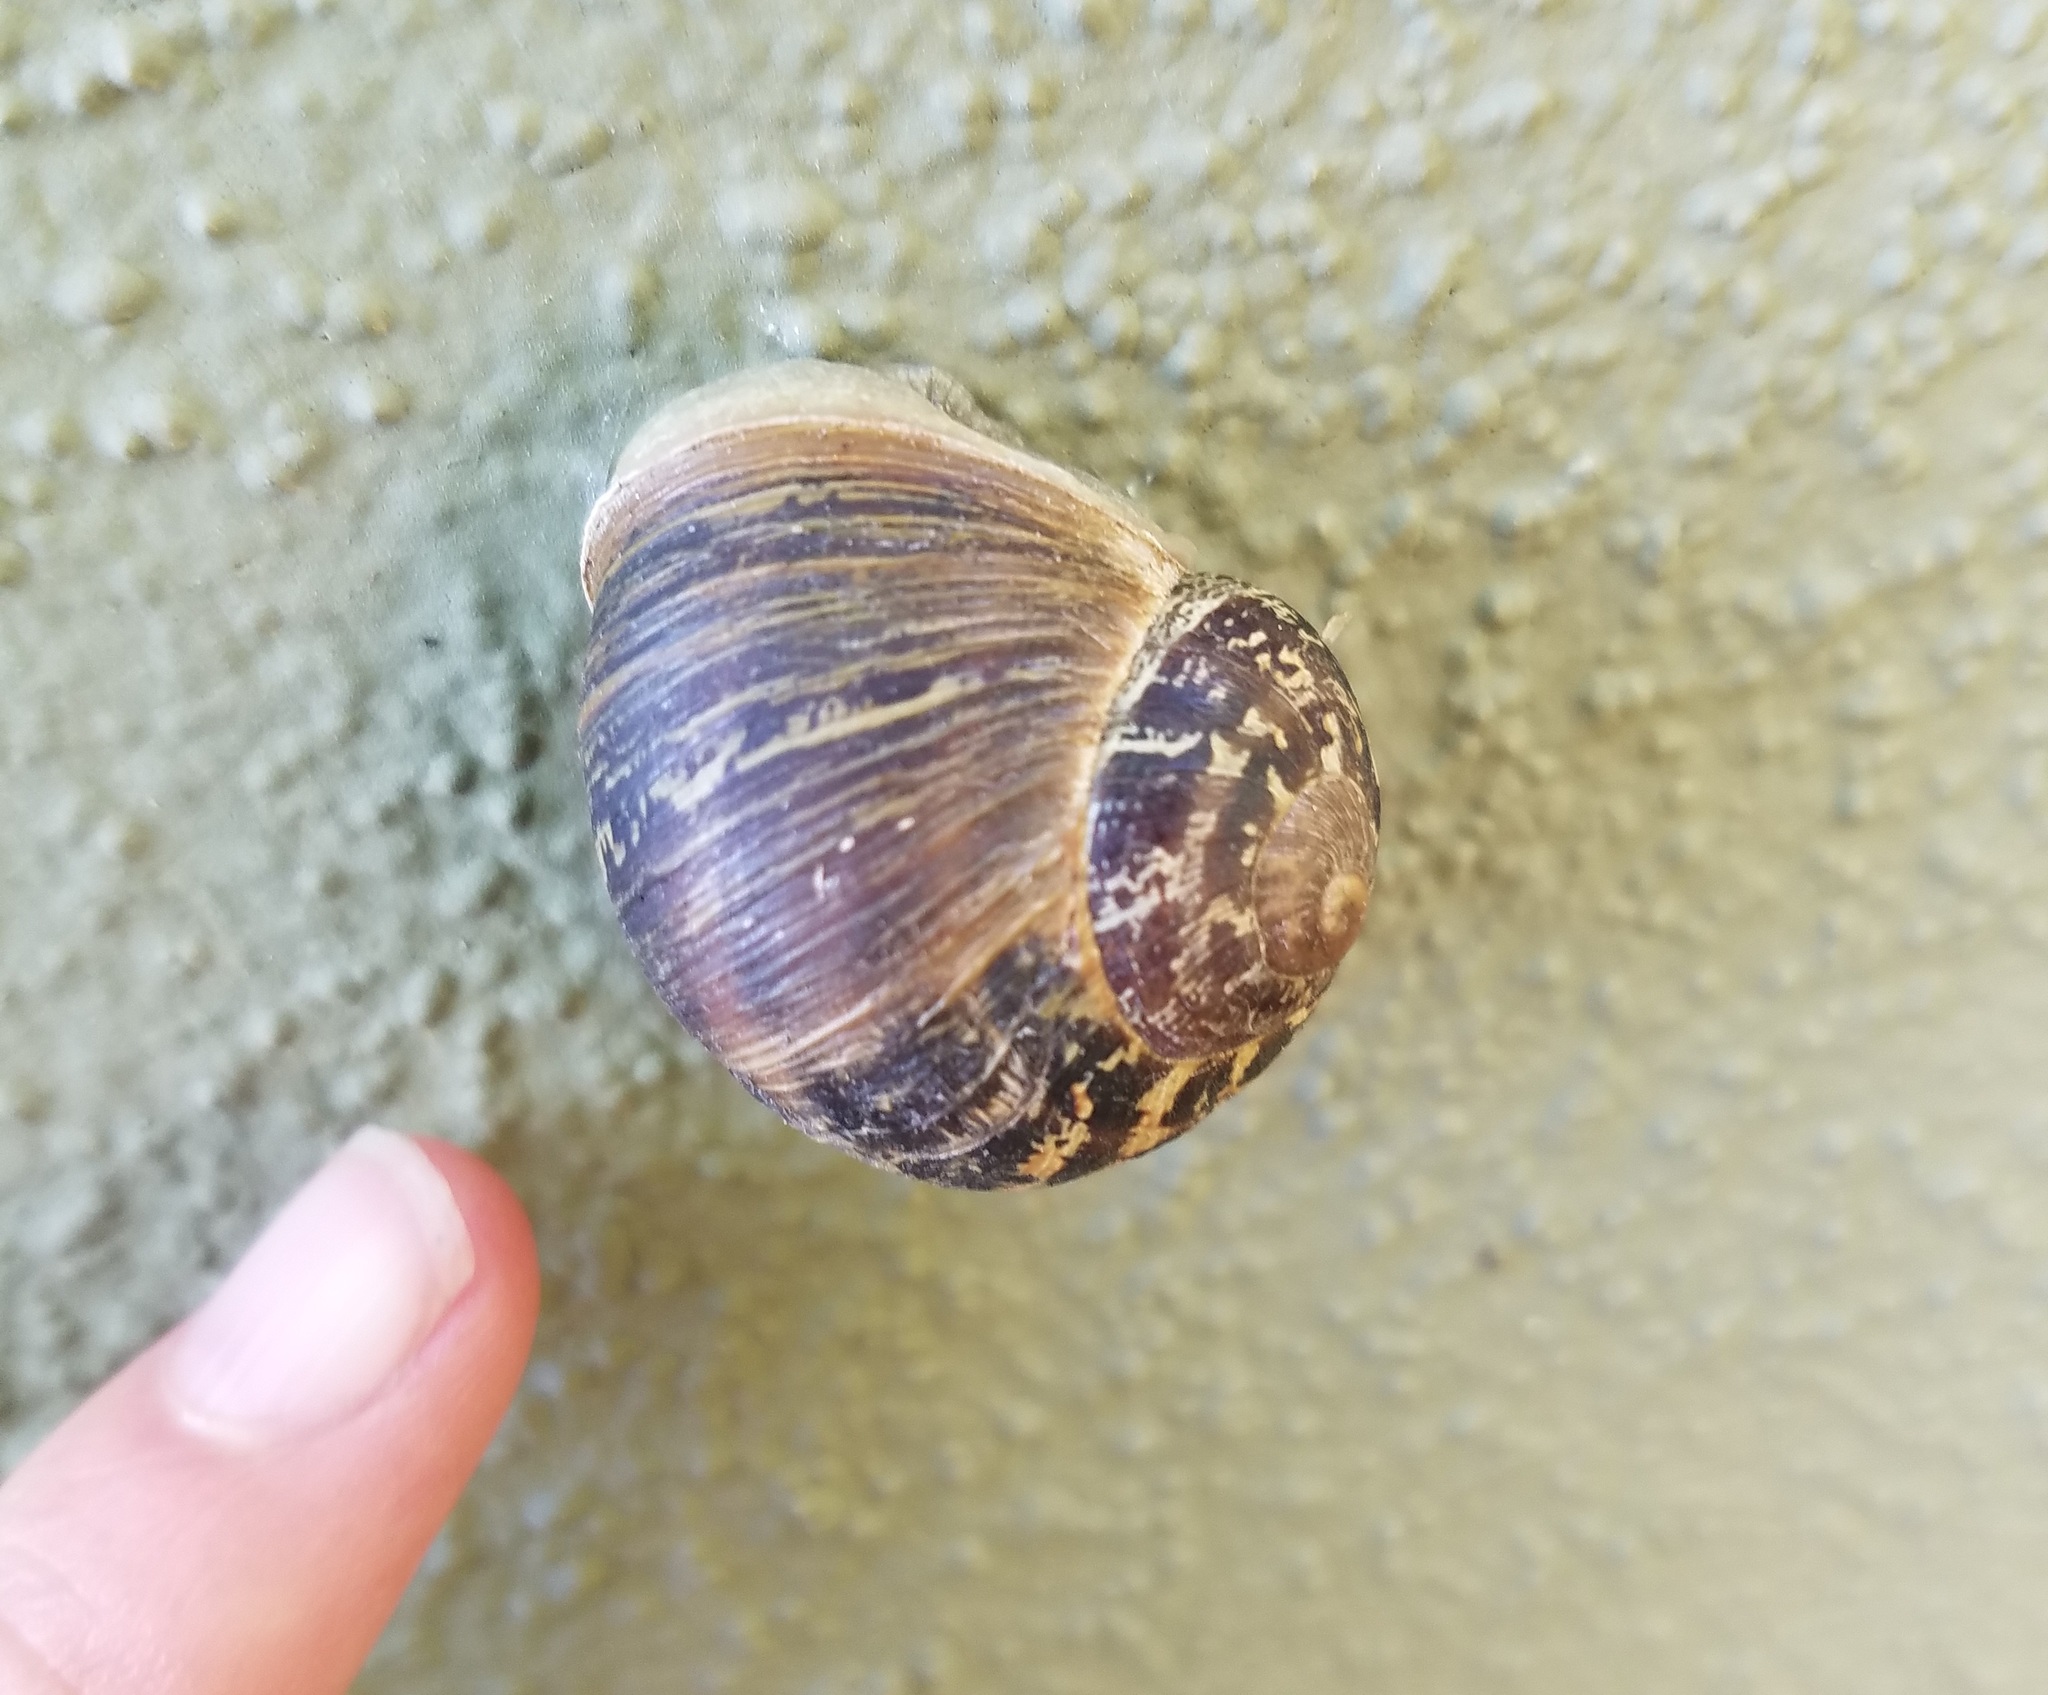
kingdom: Animalia
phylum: Mollusca
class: Gastropoda
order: Stylommatophora
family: Helicidae
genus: Cornu
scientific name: Cornu aspersum
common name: Brown garden snail
